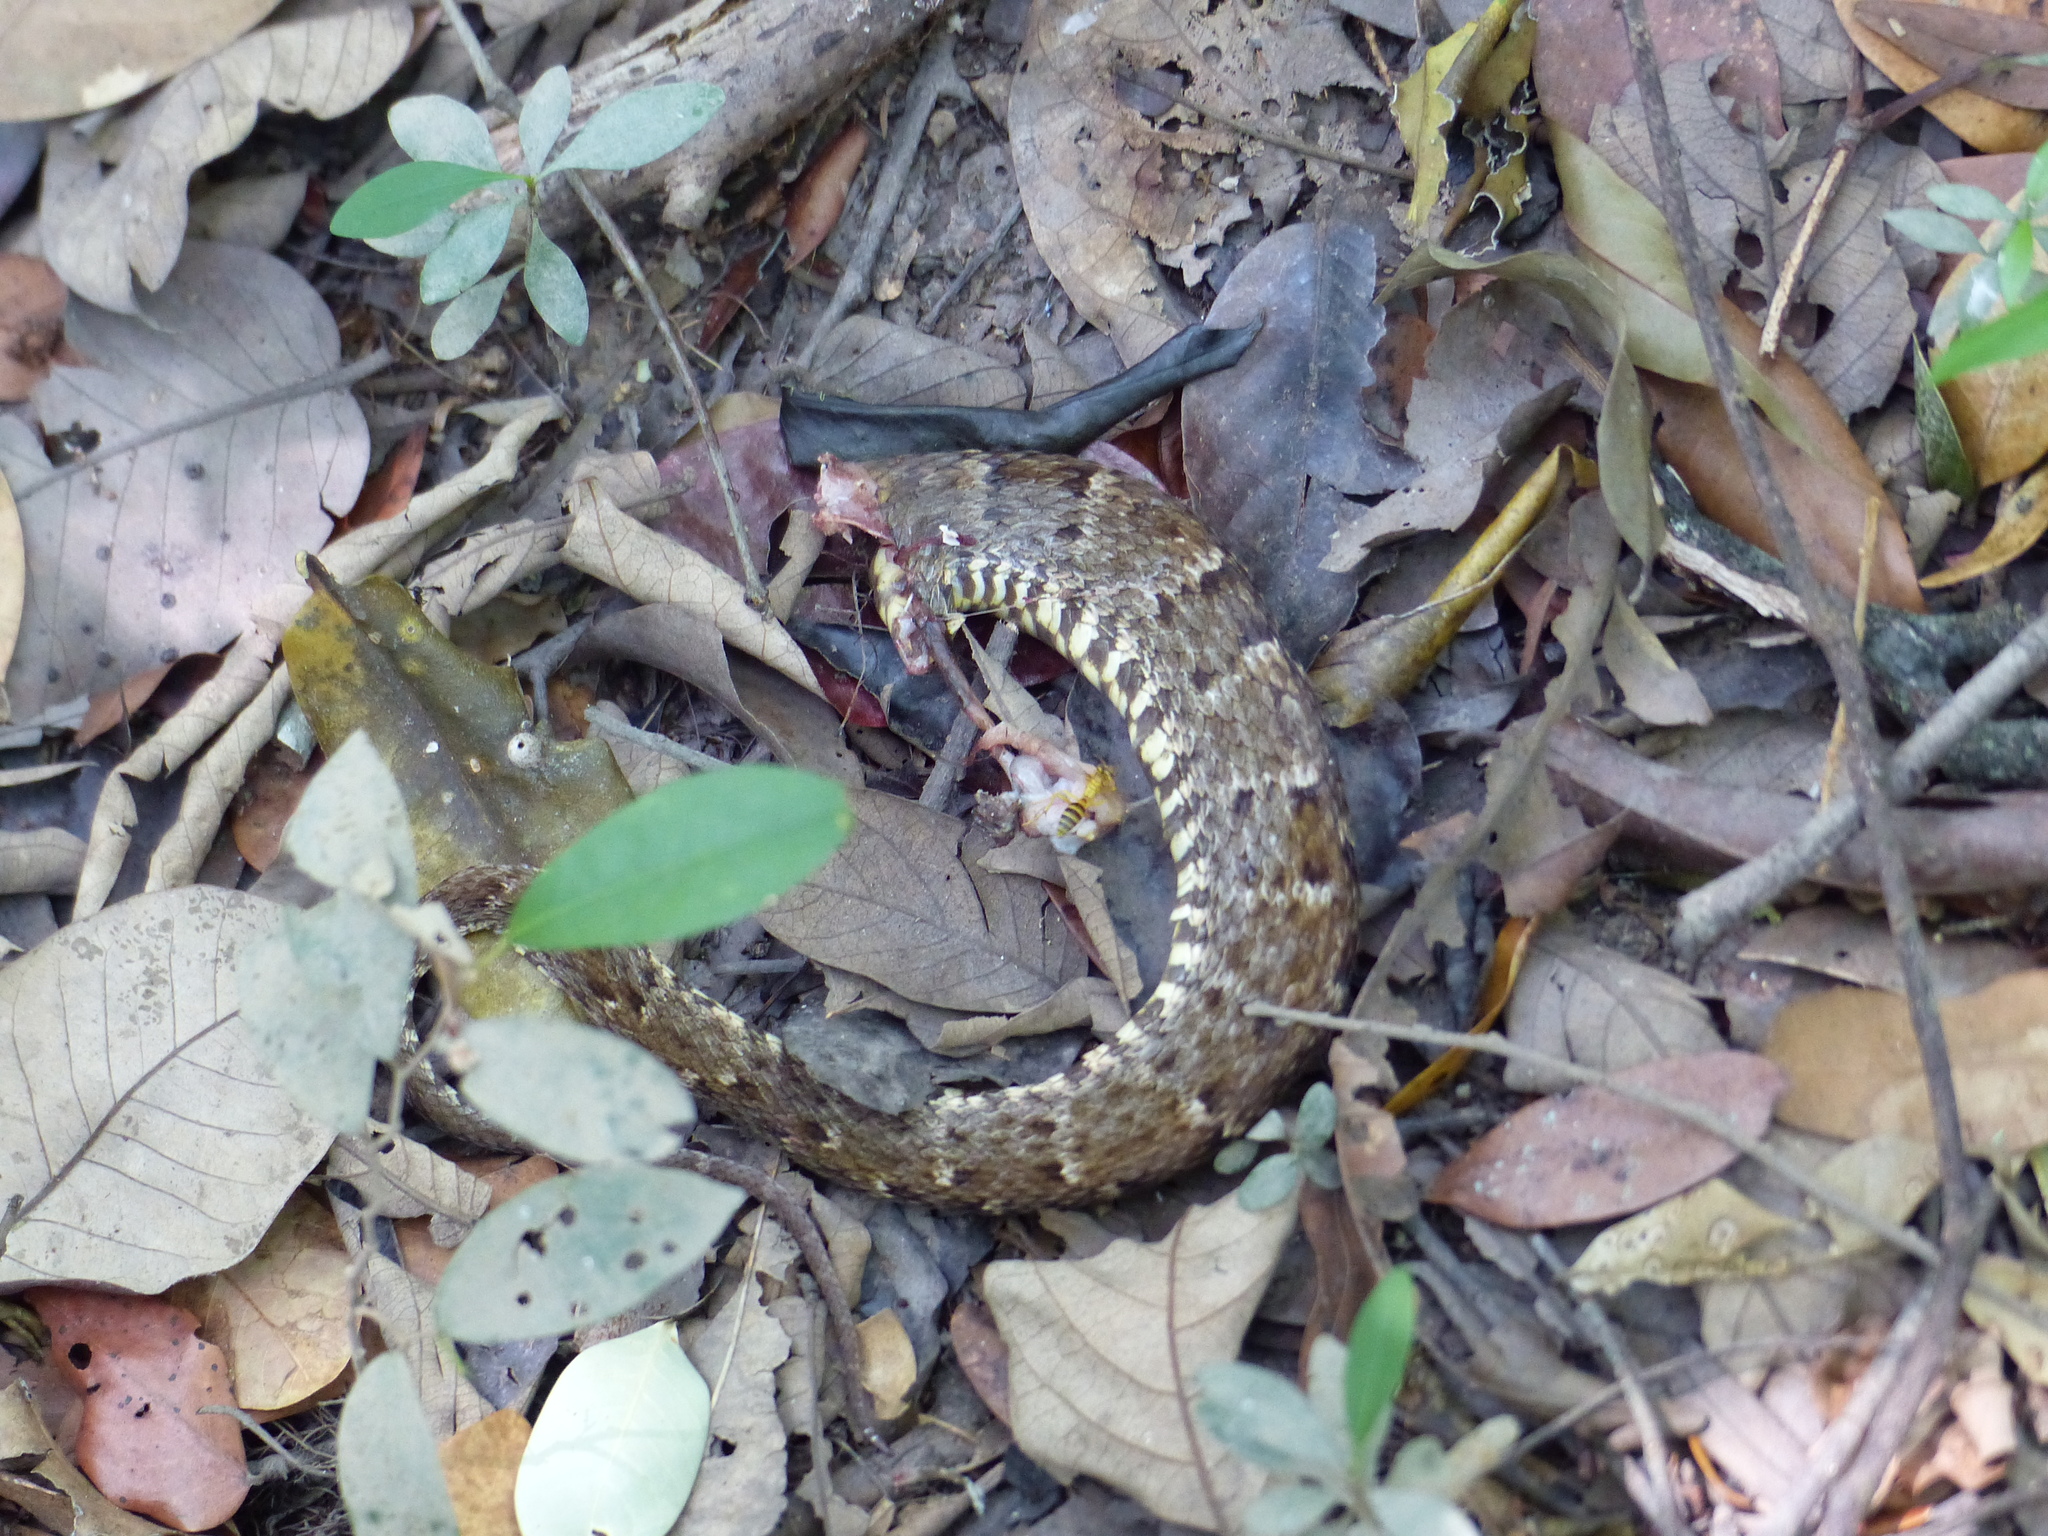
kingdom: Animalia
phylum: Chordata
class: Squamata
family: Viperidae
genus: Bothrops
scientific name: Bothrops atrox
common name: Common lancehead
